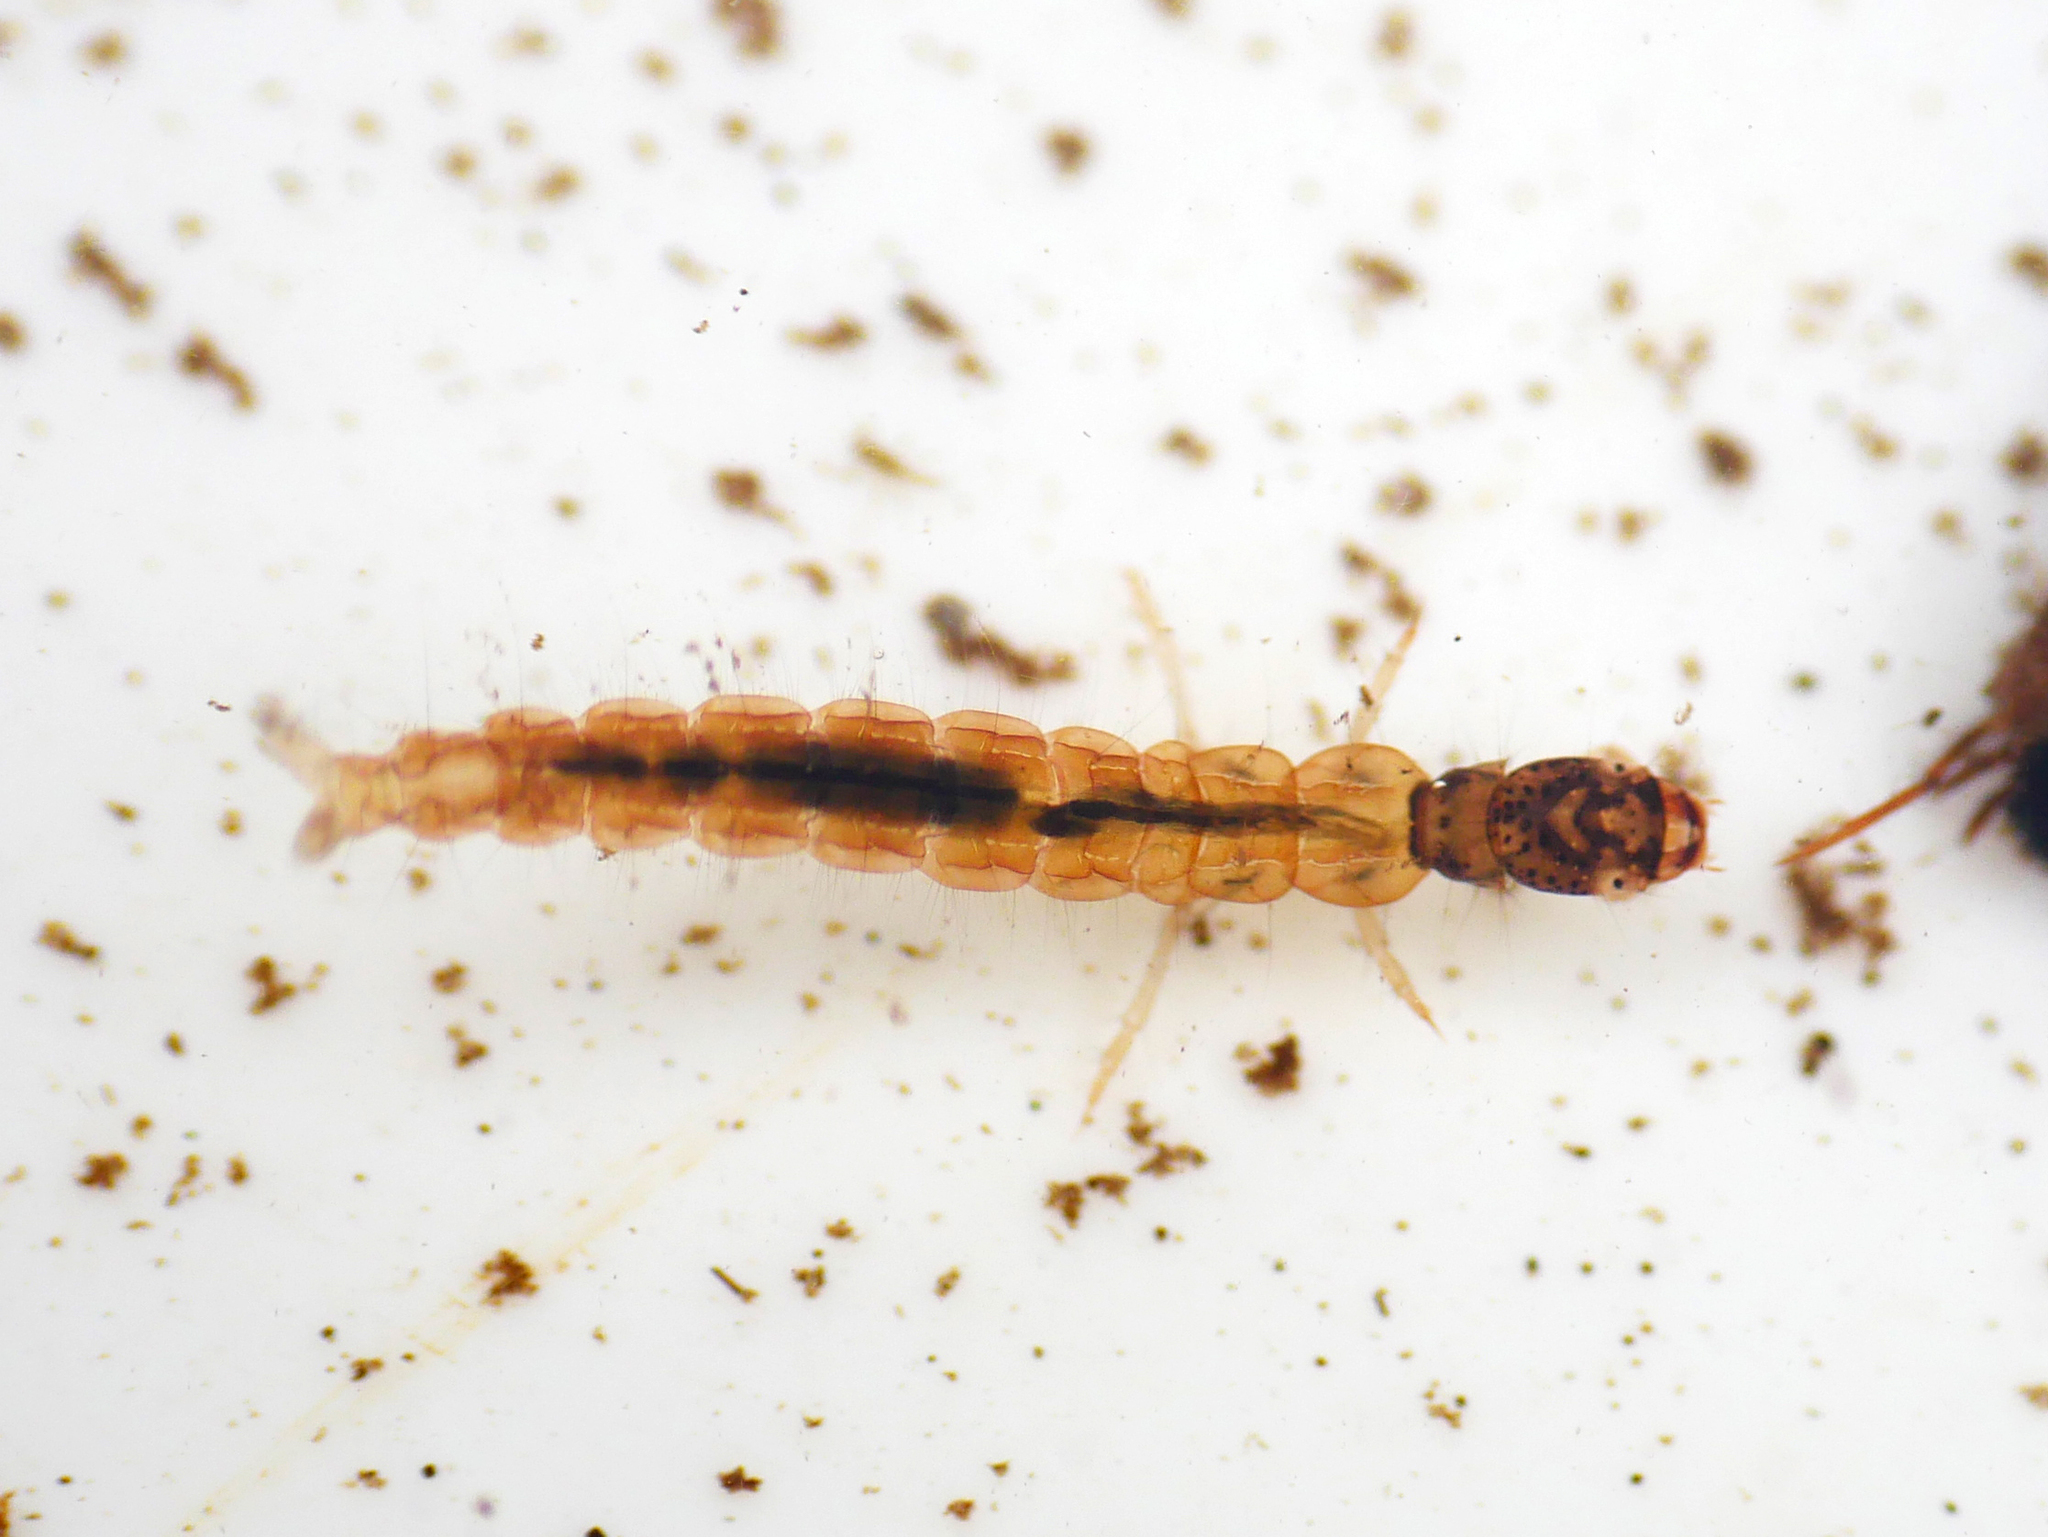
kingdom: Animalia
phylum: Arthropoda
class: Insecta
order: Trichoptera
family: Polycentropodidae
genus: Polycentropus
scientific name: Polycentropus flavomaculatus
